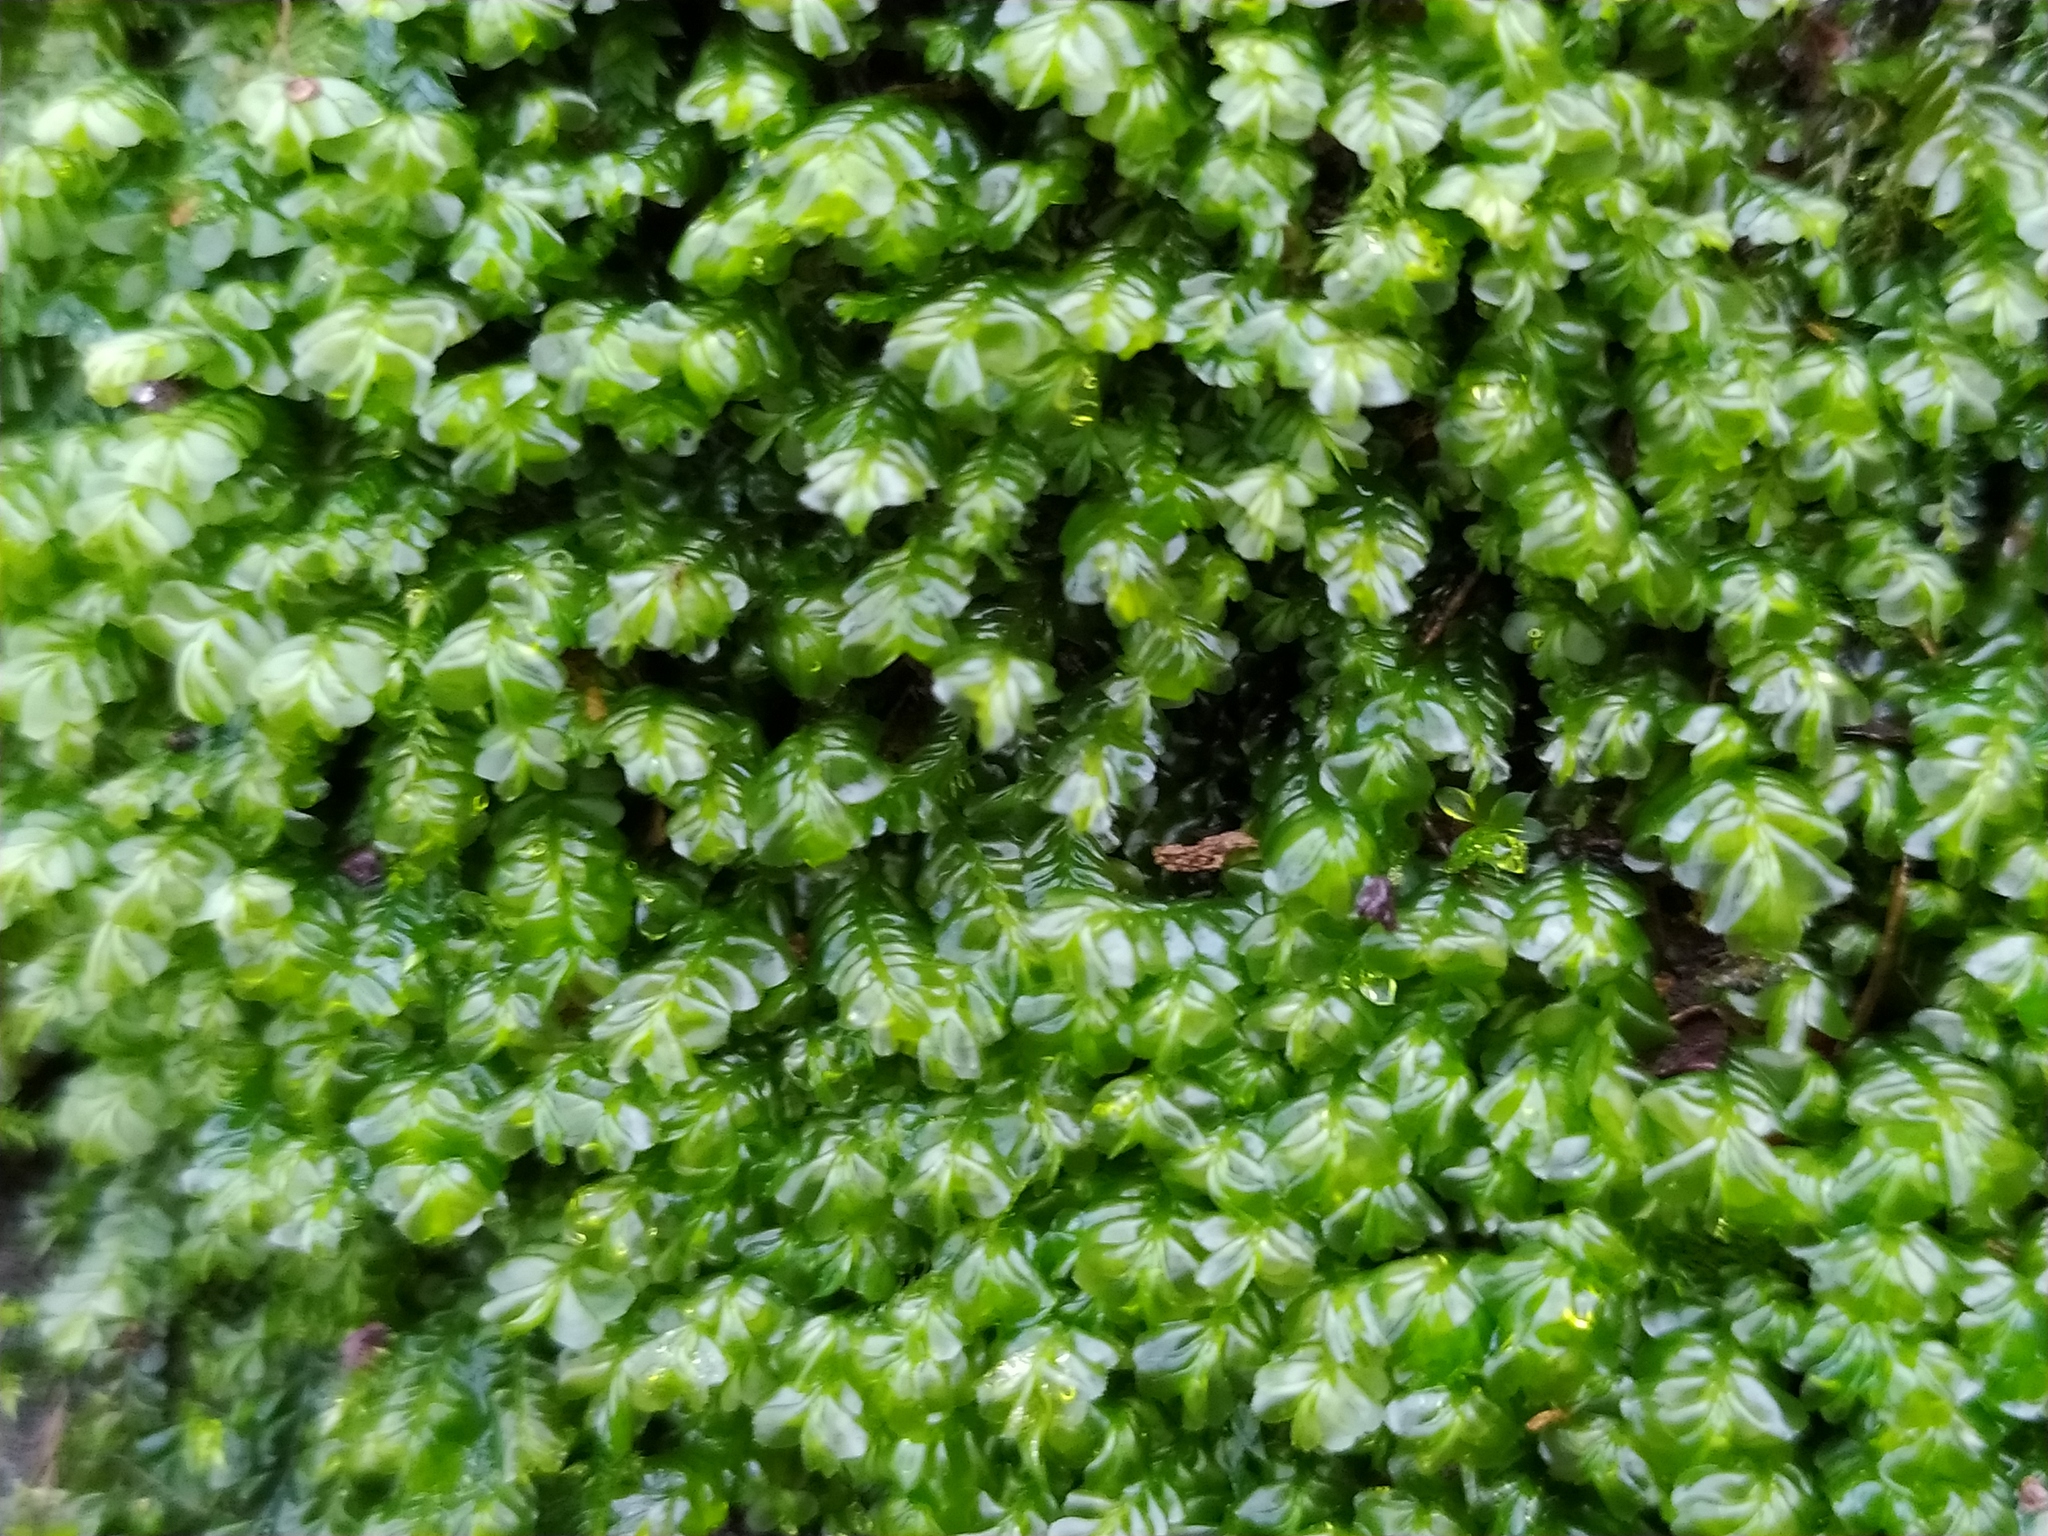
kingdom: Plantae
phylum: Marchantiophyta
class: Jungermanniopsida
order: Jungermanniales
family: Plagiochilaceae
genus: Plagiochila
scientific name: Plagiochila porelloides
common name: Lesser featherwort
